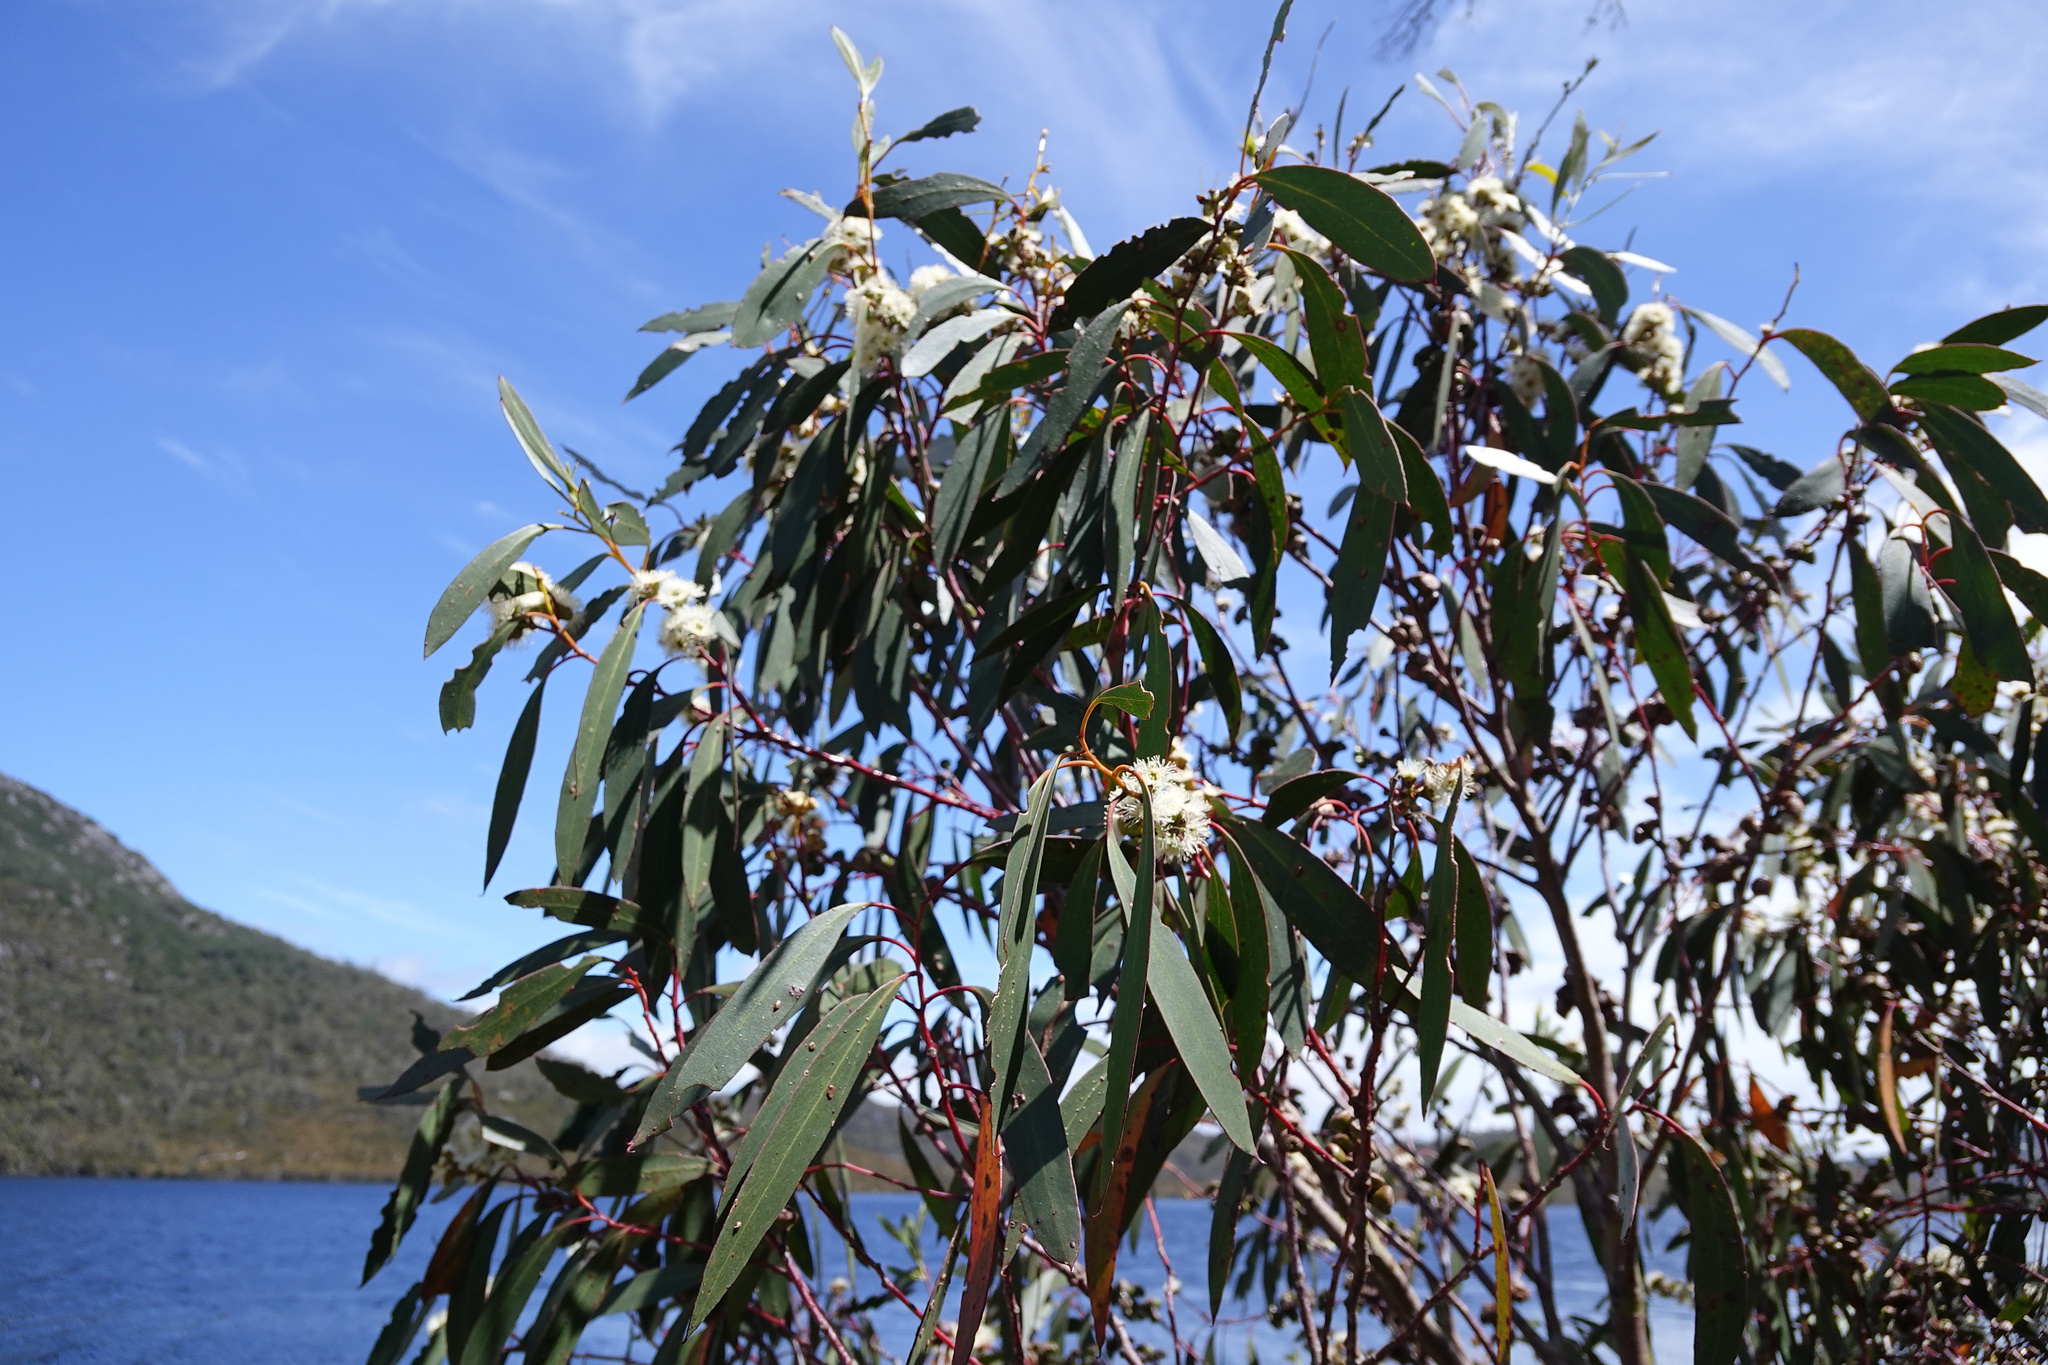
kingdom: Plantae
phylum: Tracheophyta
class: Magnoliopsida
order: Myrtales
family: Myrtaceae
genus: Eucalyptus
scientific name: Eucalyptus coccifera
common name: Tasmanian snow-gum
